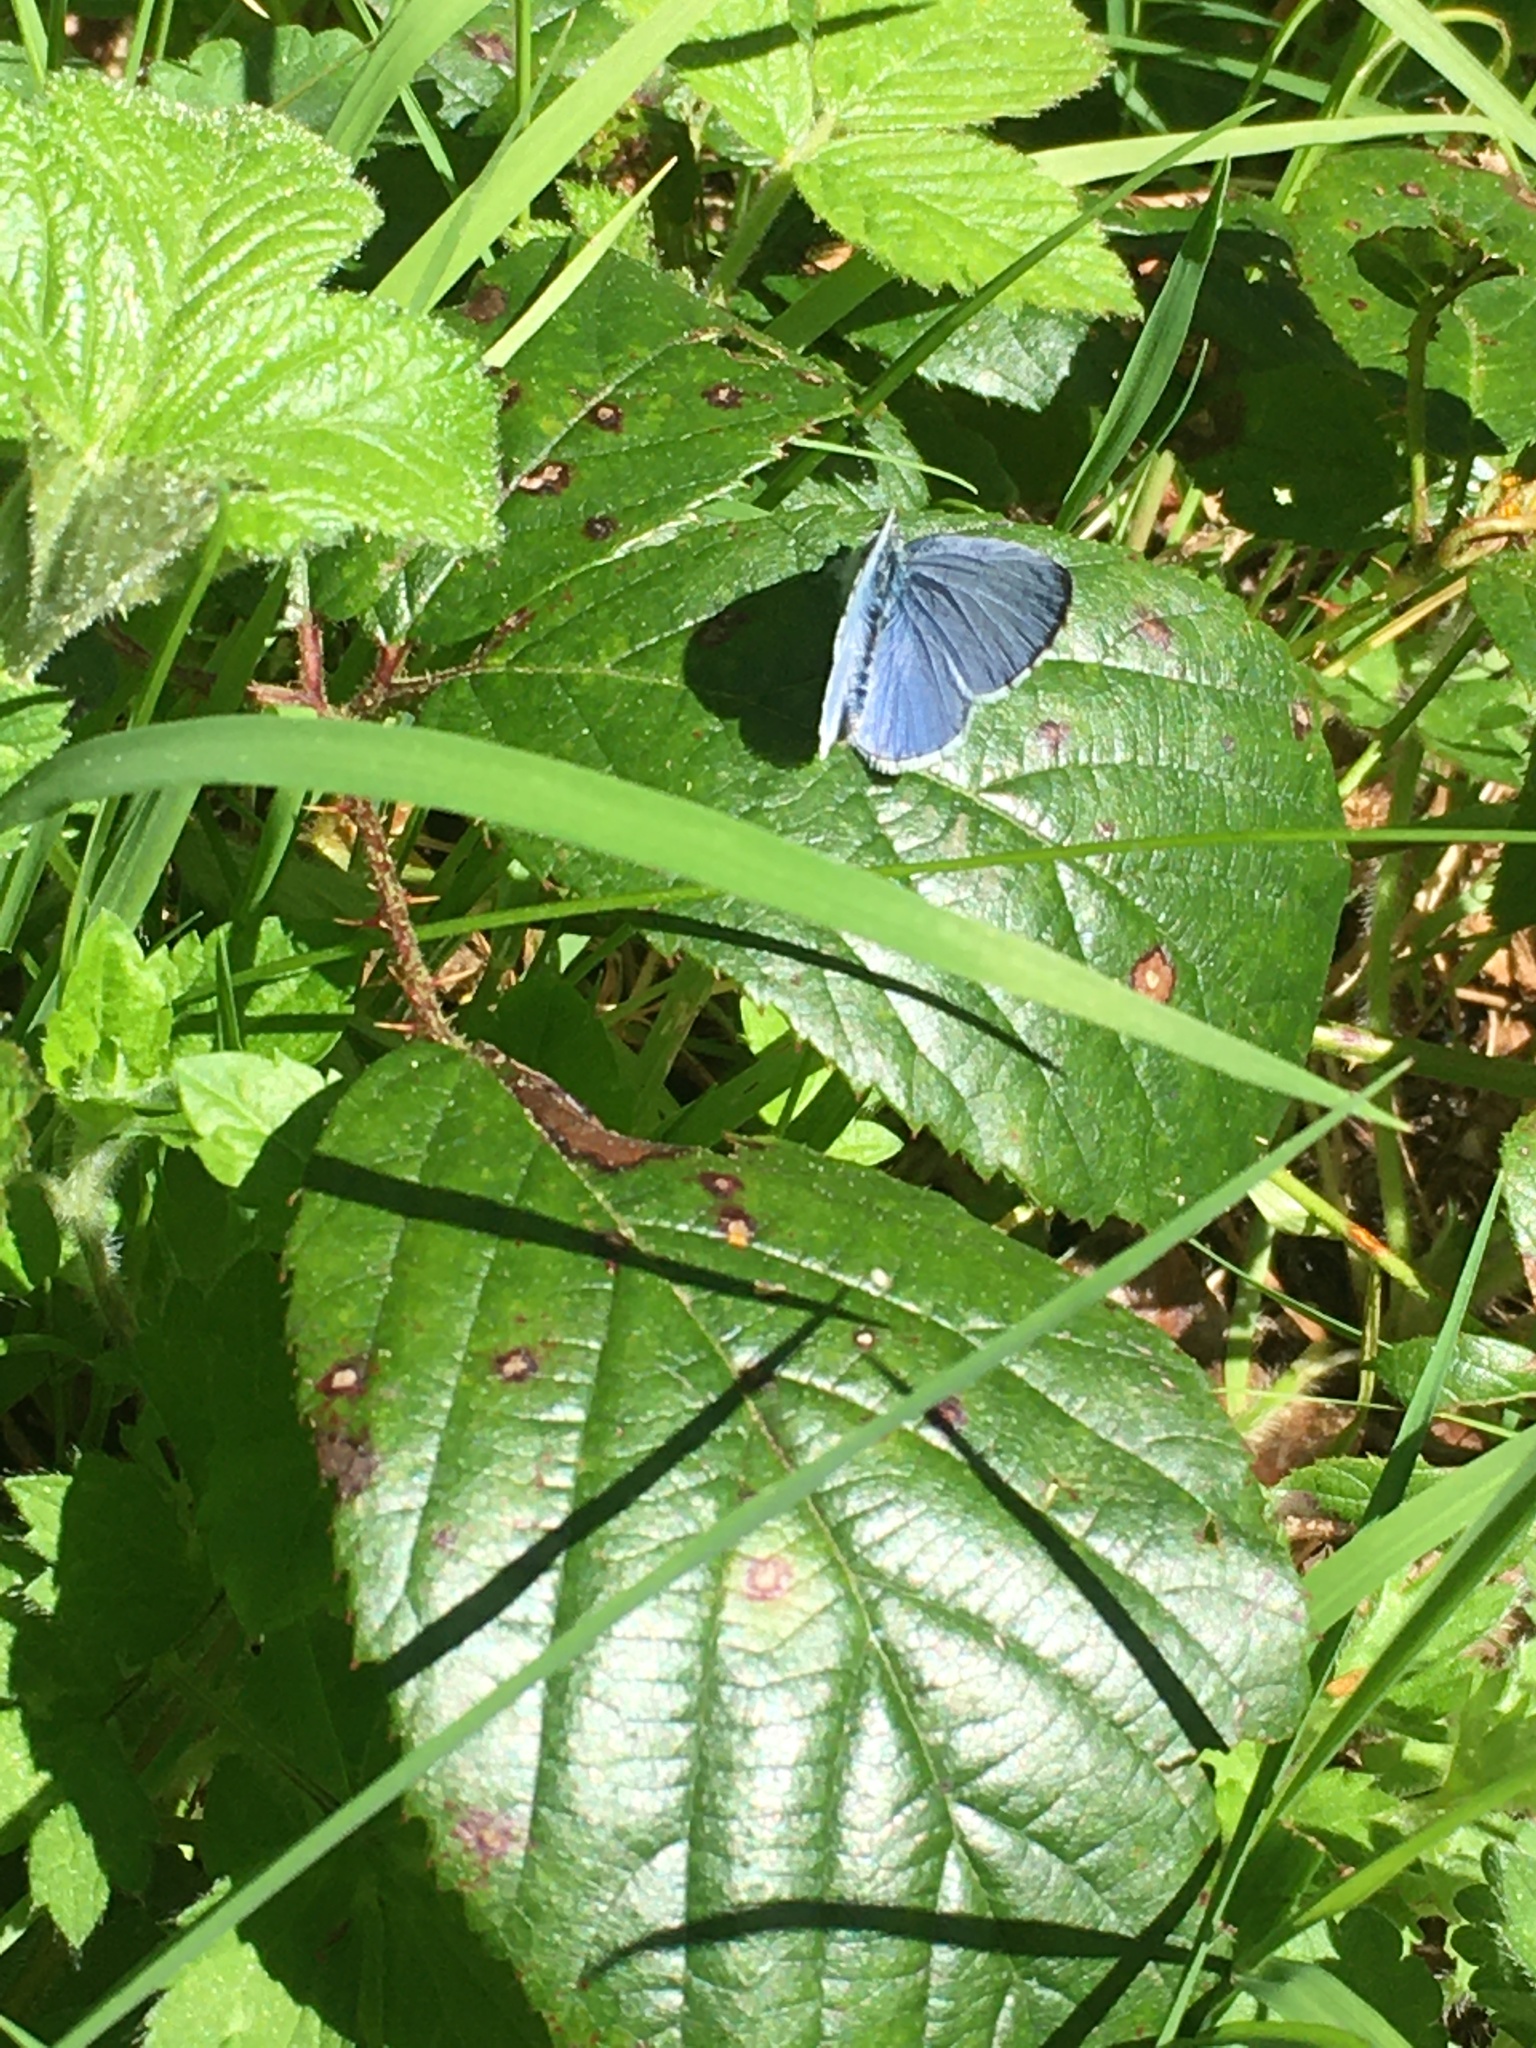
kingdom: Animalia
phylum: Arthropoda
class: Insecta
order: Lepidoptera
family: Lycaenidae
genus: Celastrina
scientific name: Celastrina argiolus
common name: Holly blue
